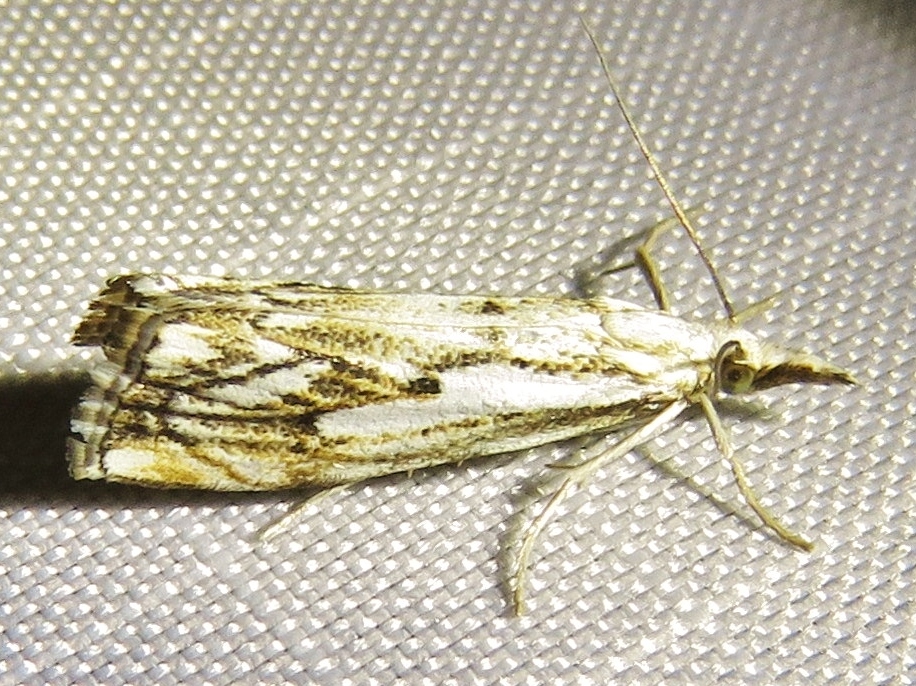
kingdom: Animalia
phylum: Arthropoda
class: Insecta
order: Lepidoptera
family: Crambidae
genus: Catoptria
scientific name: Catoptria falsella
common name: Chequered grass-veneer
